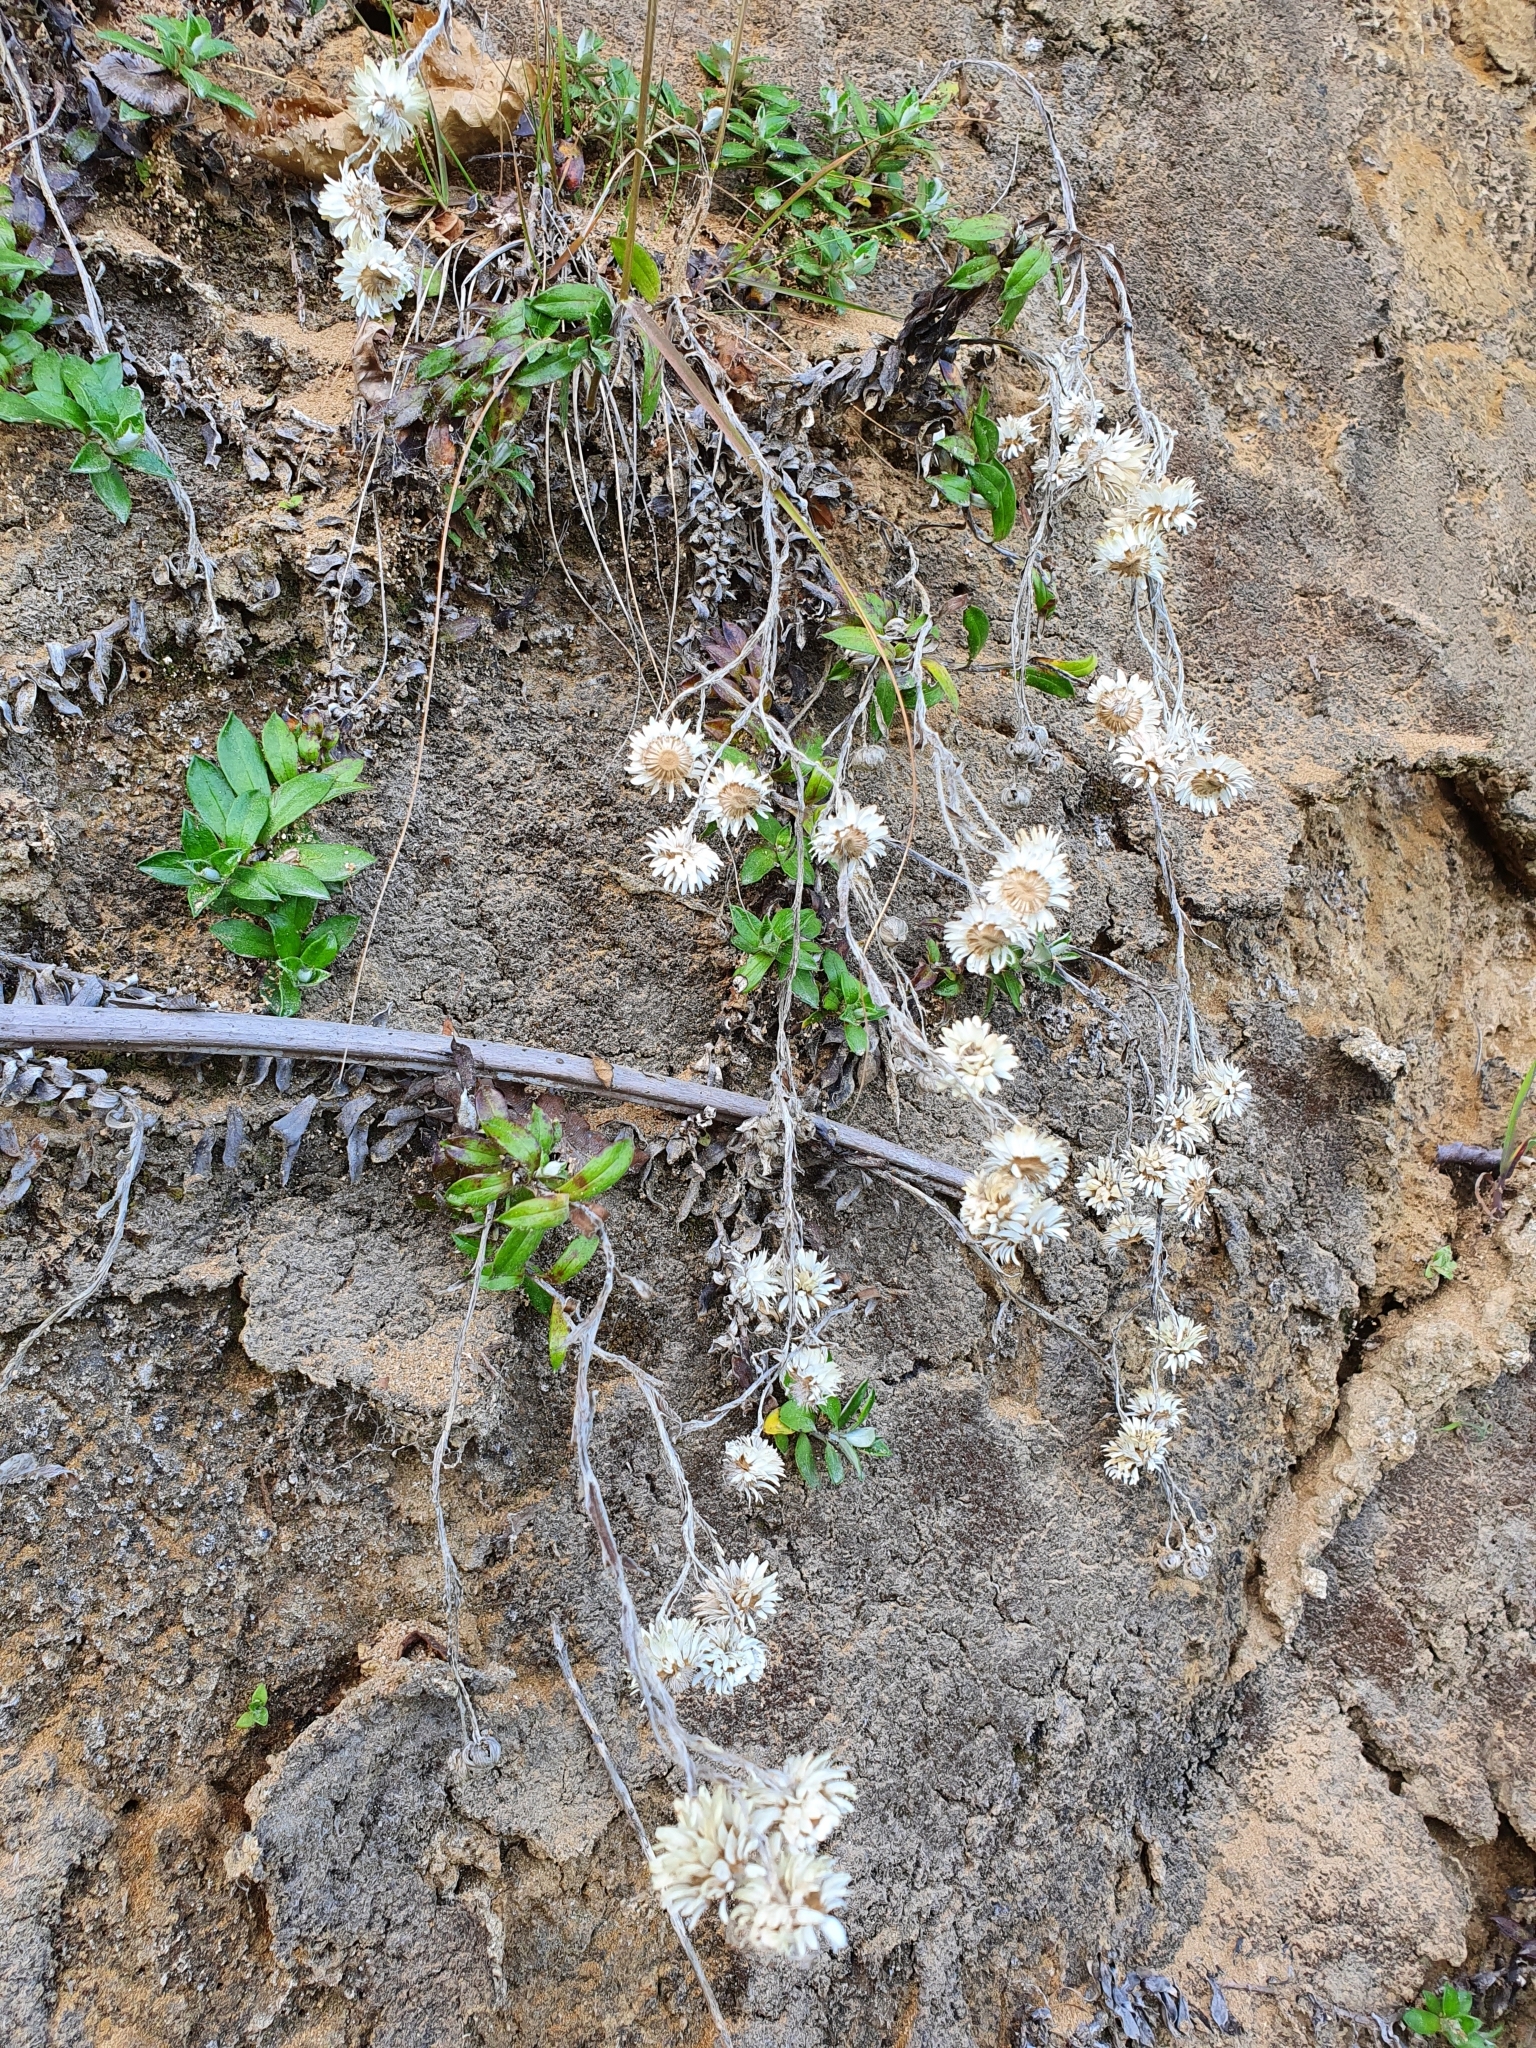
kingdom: Plantae
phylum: Tracheophyta
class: Magnoliopsida
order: Asterales
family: Asteraceae
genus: Anaphalioides
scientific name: Anaphalioides hookeri
